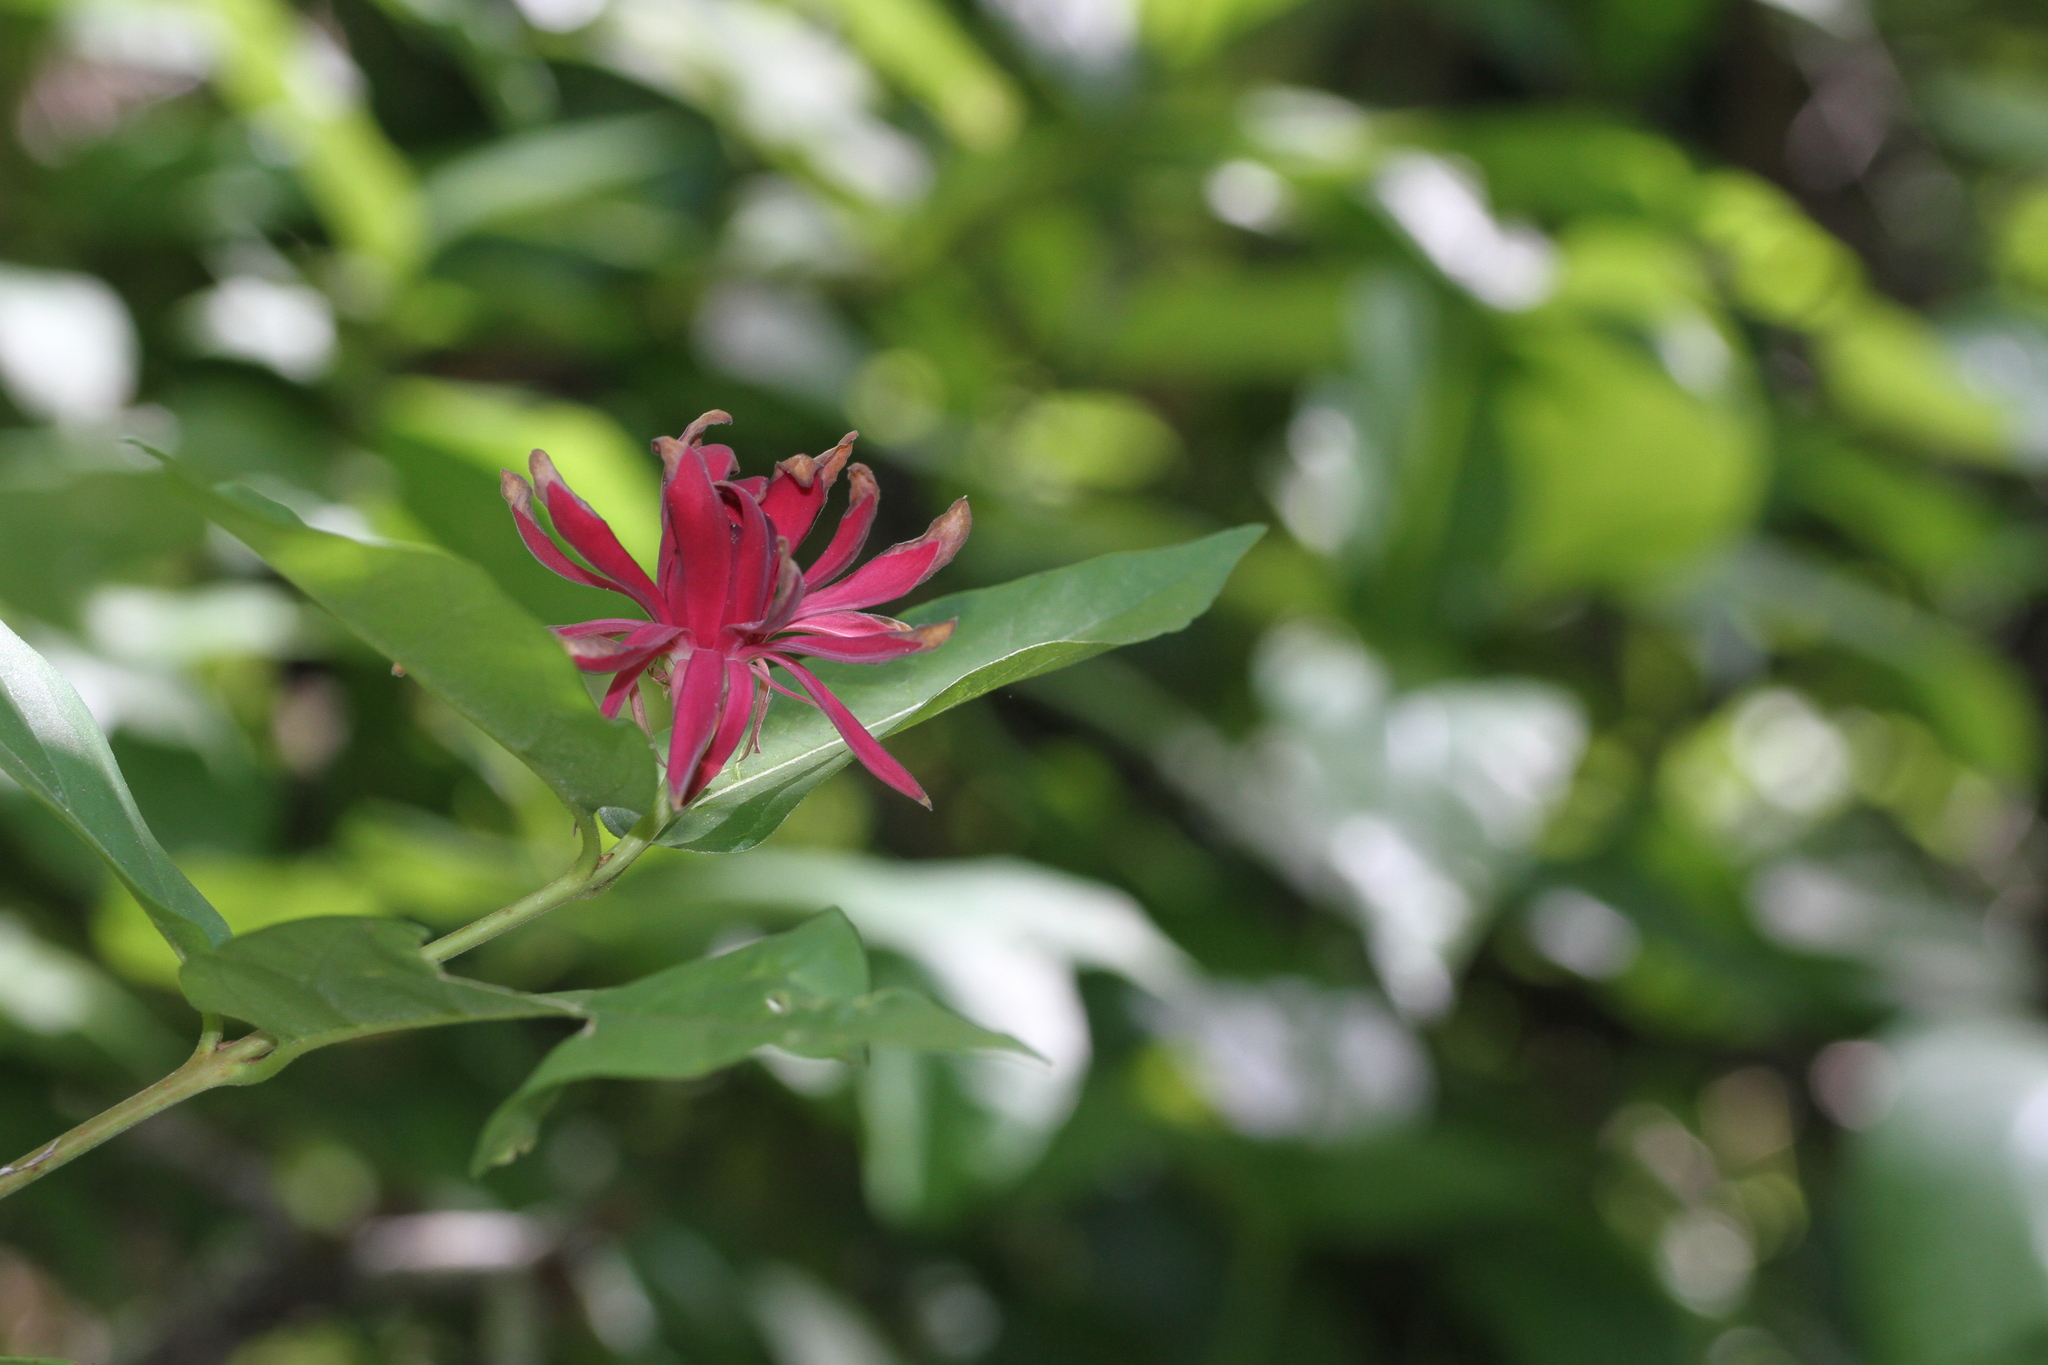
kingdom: Plantae
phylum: Tracheophyta
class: Magnoliopsida
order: Laurales
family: Calycanthaceae
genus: Calycanthus
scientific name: Calycanthus occidentalis
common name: California spicebush
